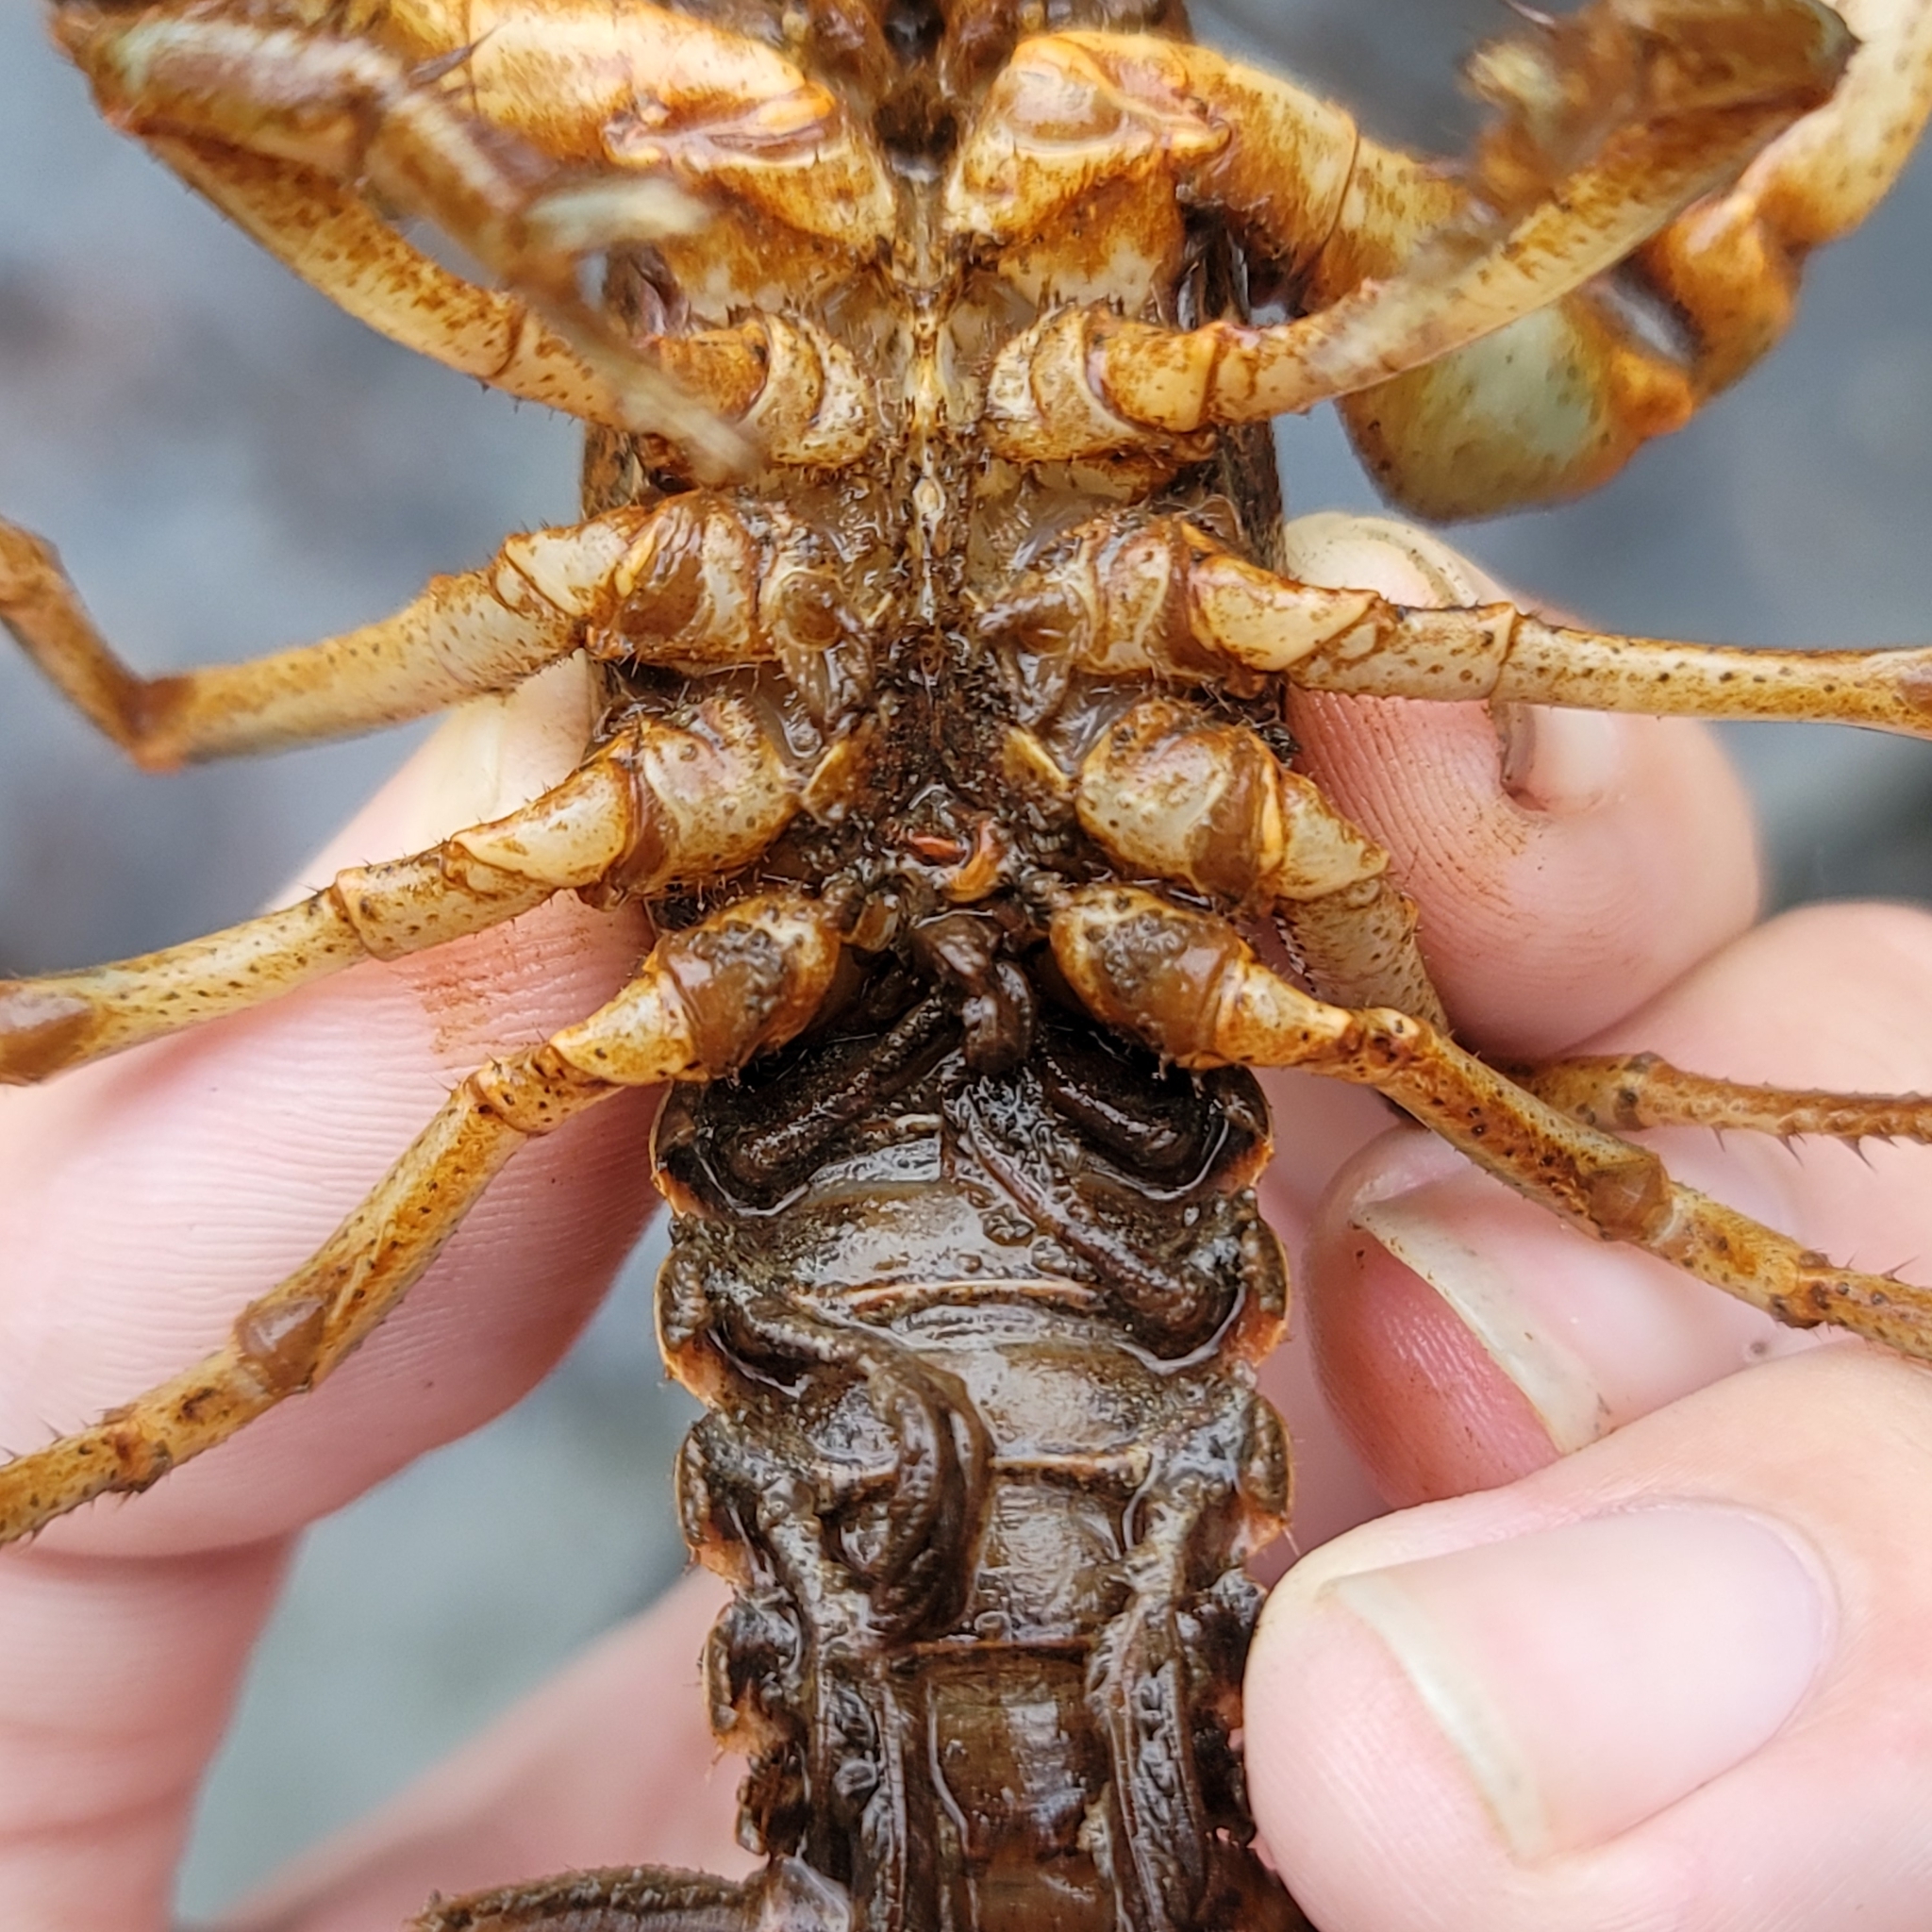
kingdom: Animalia
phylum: Arthropoda
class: Malacostraca
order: Decapoda
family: Cambaridae
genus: Cambarus
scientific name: Cambarus halli
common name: Slackwater crayfish
